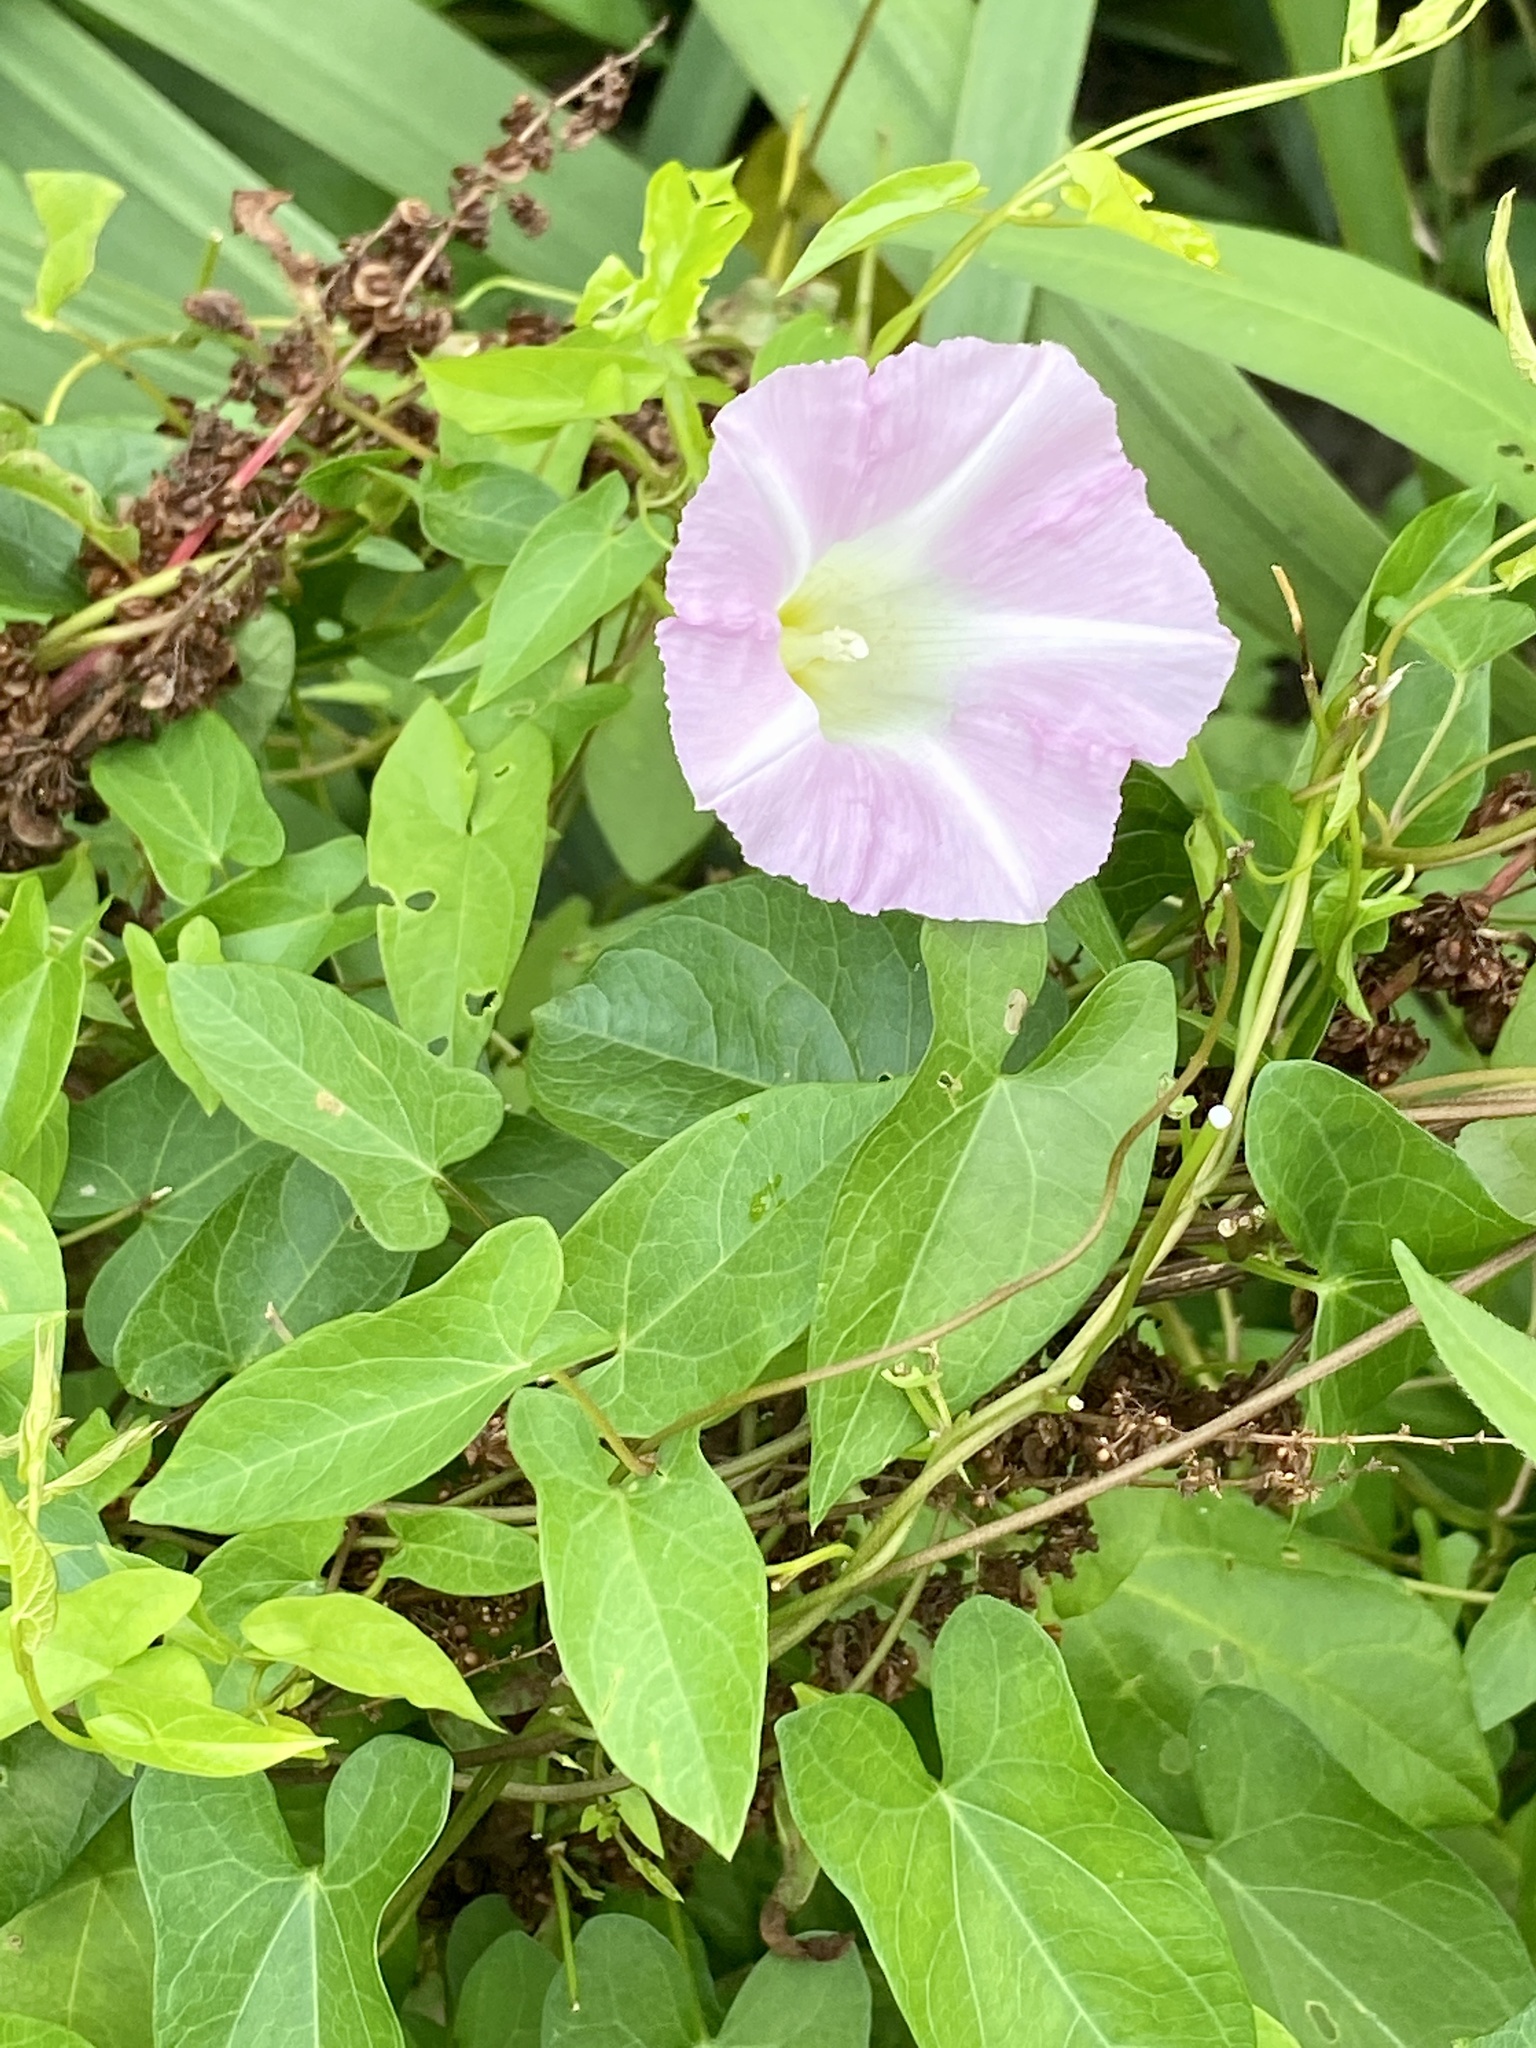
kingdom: Plantae
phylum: Tracheophyta
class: Magnoliopsida
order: Solanales
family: Convolvulaceae
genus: Calystegia
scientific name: Calystegia sepium
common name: Hedge bindweed
